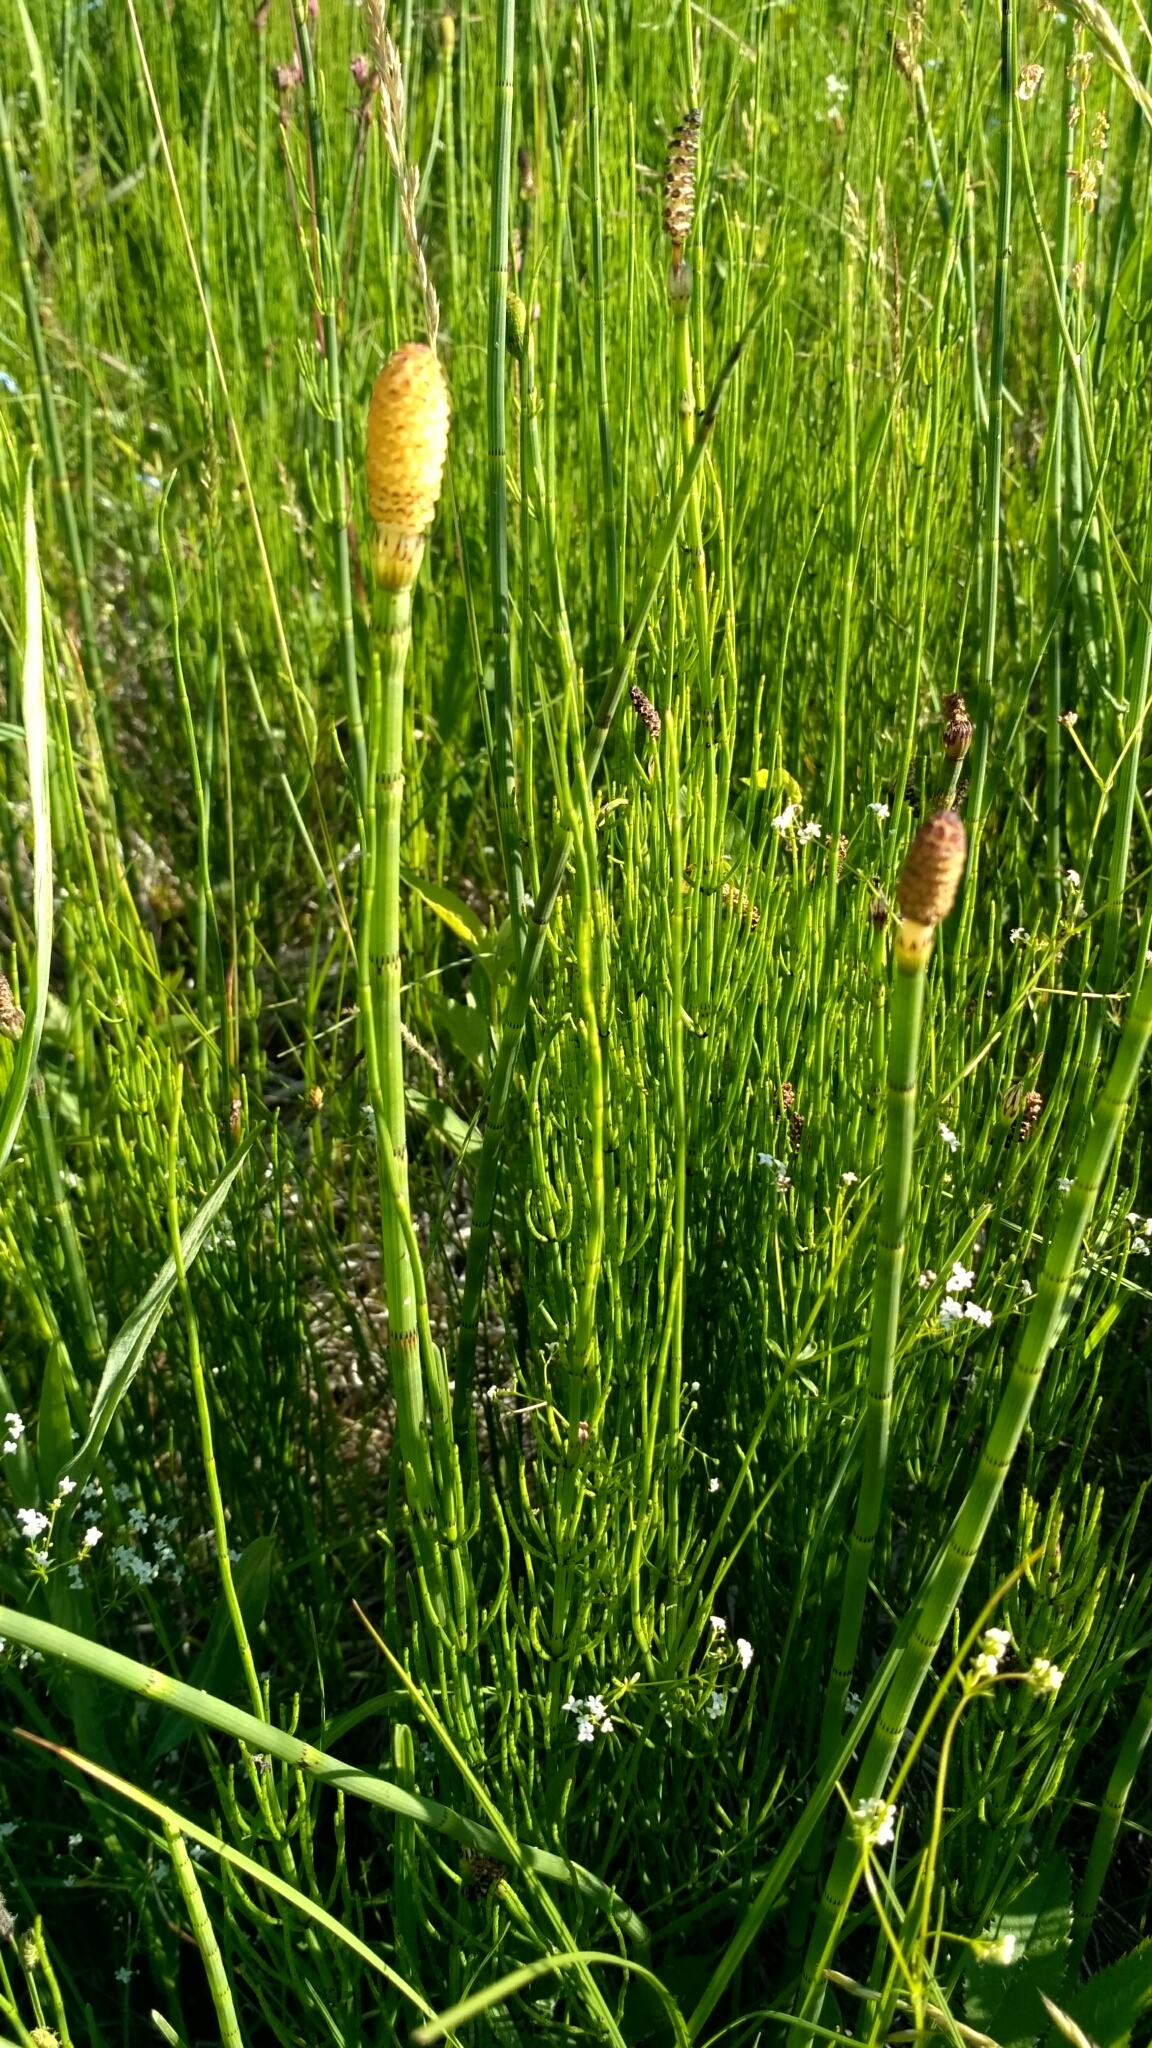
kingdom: Plantae
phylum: Tracheophyta
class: Polypodiopsida
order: Equisetales
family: Equisetaceae
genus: Equisetum
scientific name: Equisetum fluviatile
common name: Water horsetail
